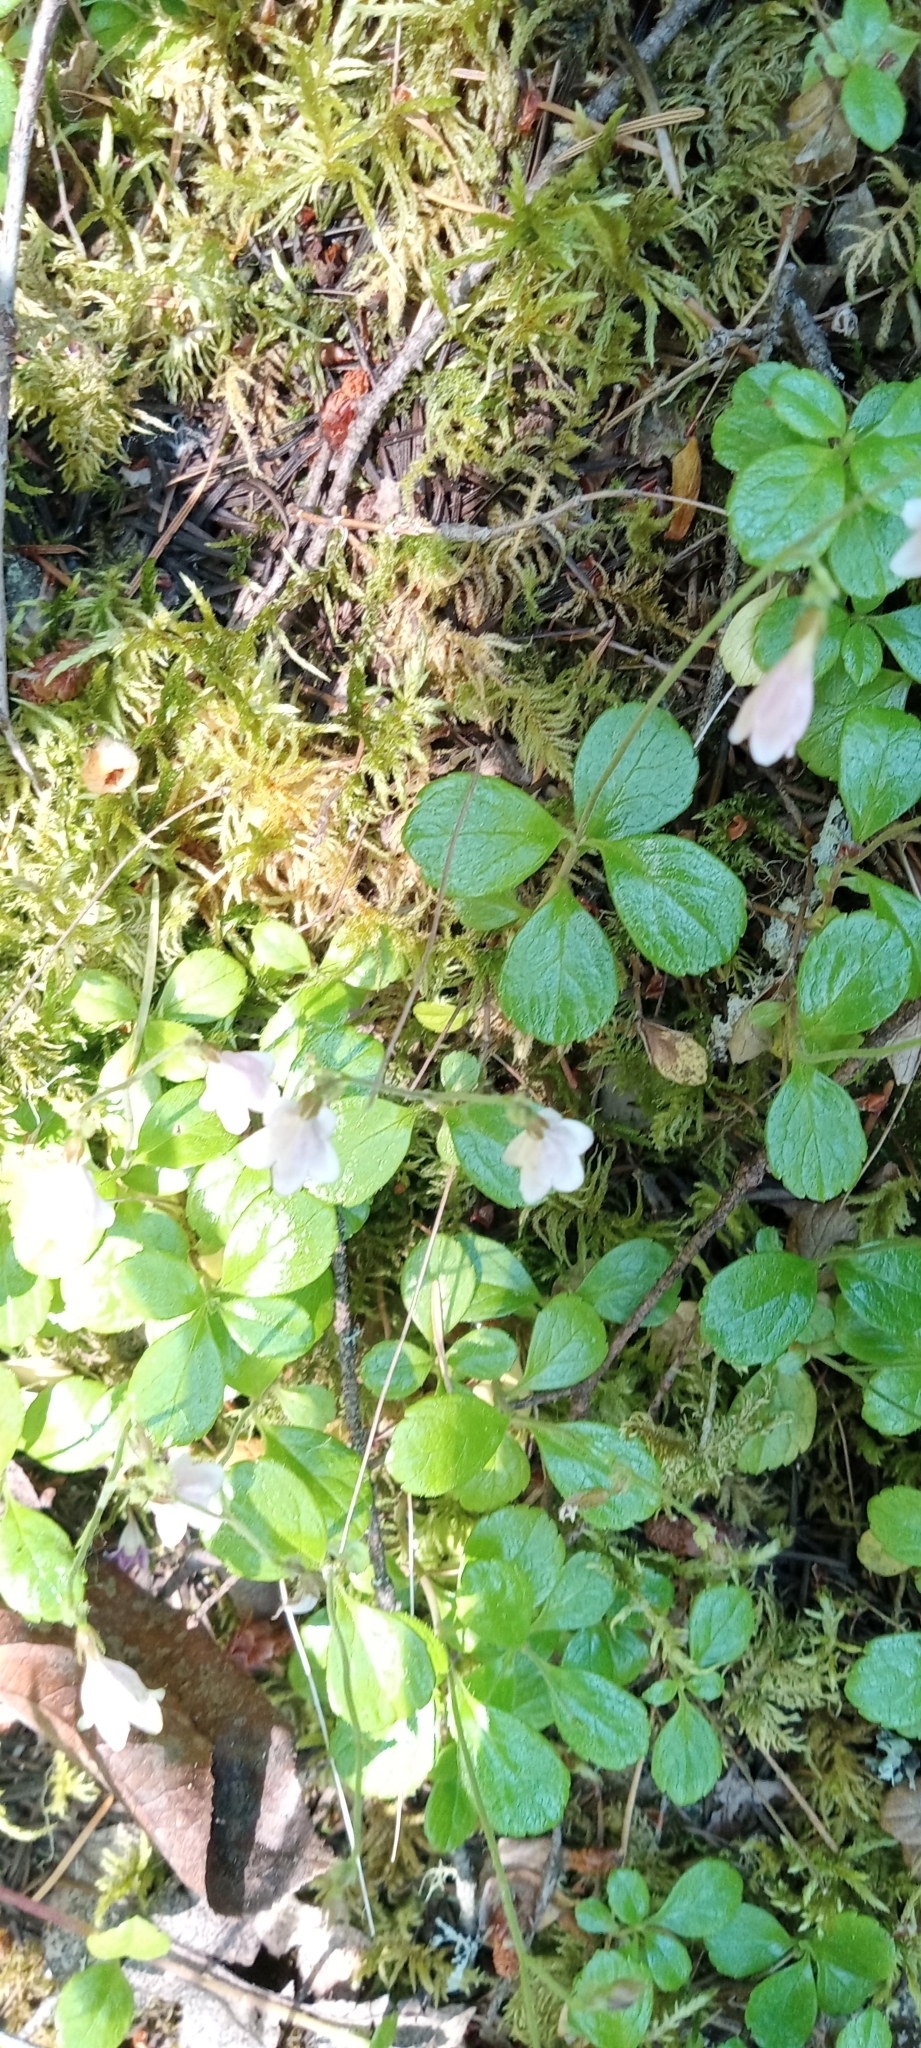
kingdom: Plantae
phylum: Tracheophyta
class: Magnoliopsida
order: Dipsacales
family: Caprifoliaceae
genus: Linnaea
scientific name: Linnaea borealis
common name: Twinflower
